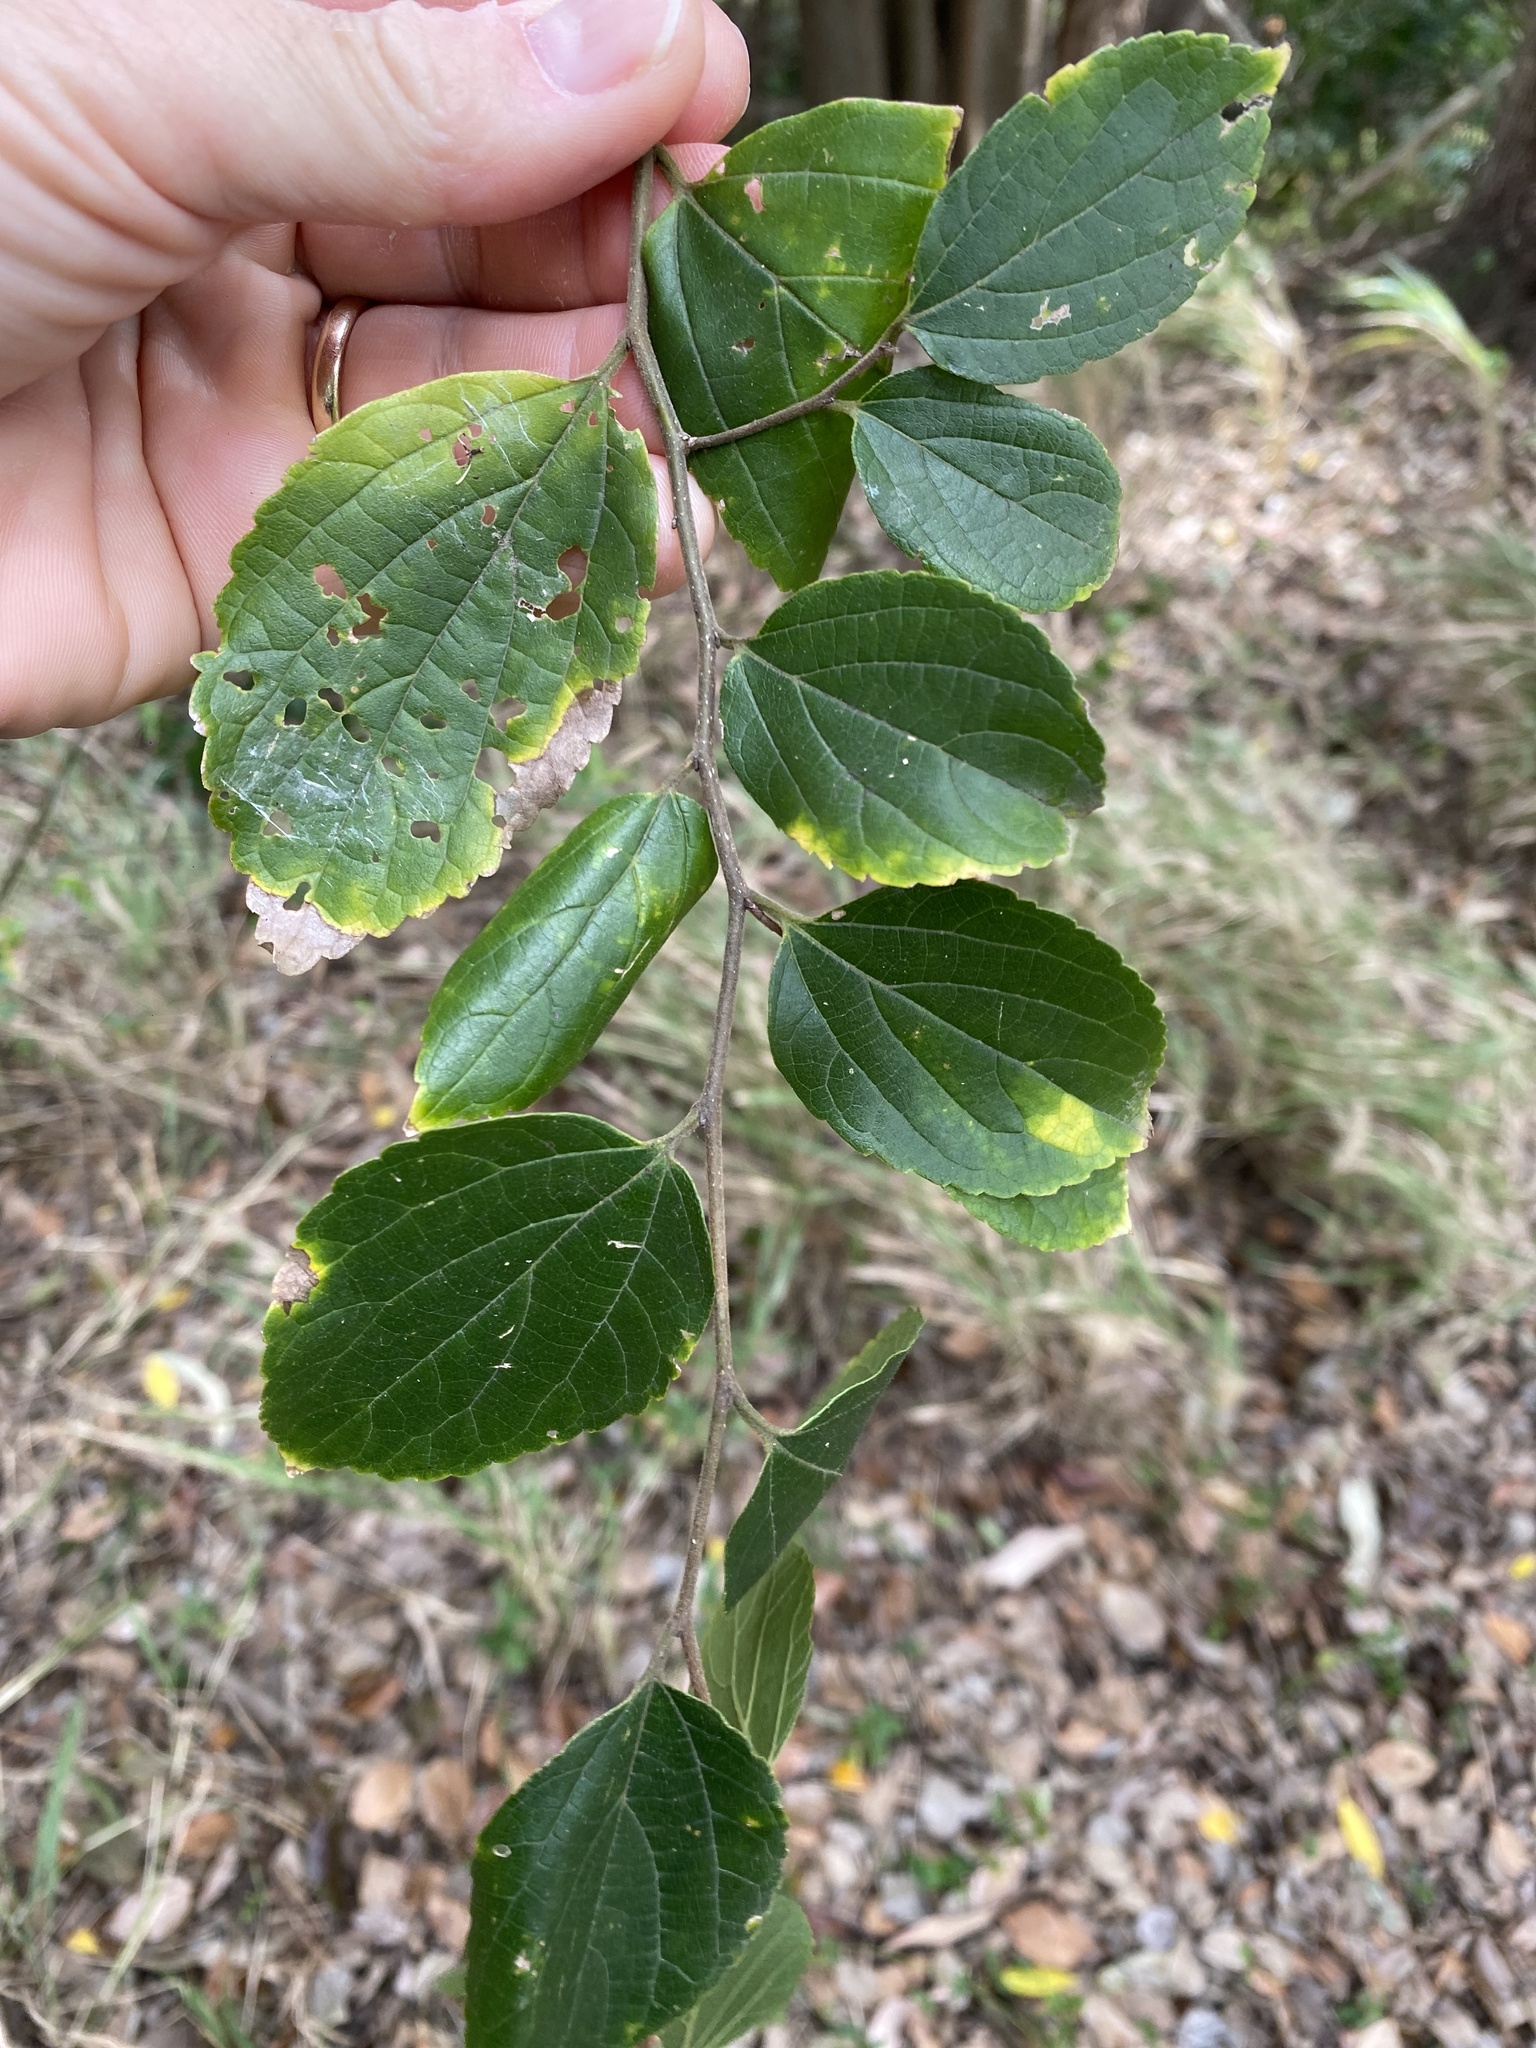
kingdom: Plantae
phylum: Tracheophyta
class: Magnoliopsida
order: Rosales
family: Cannabaceae
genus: Celtis
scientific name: Celtis sinensis
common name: Chinese hackberry
